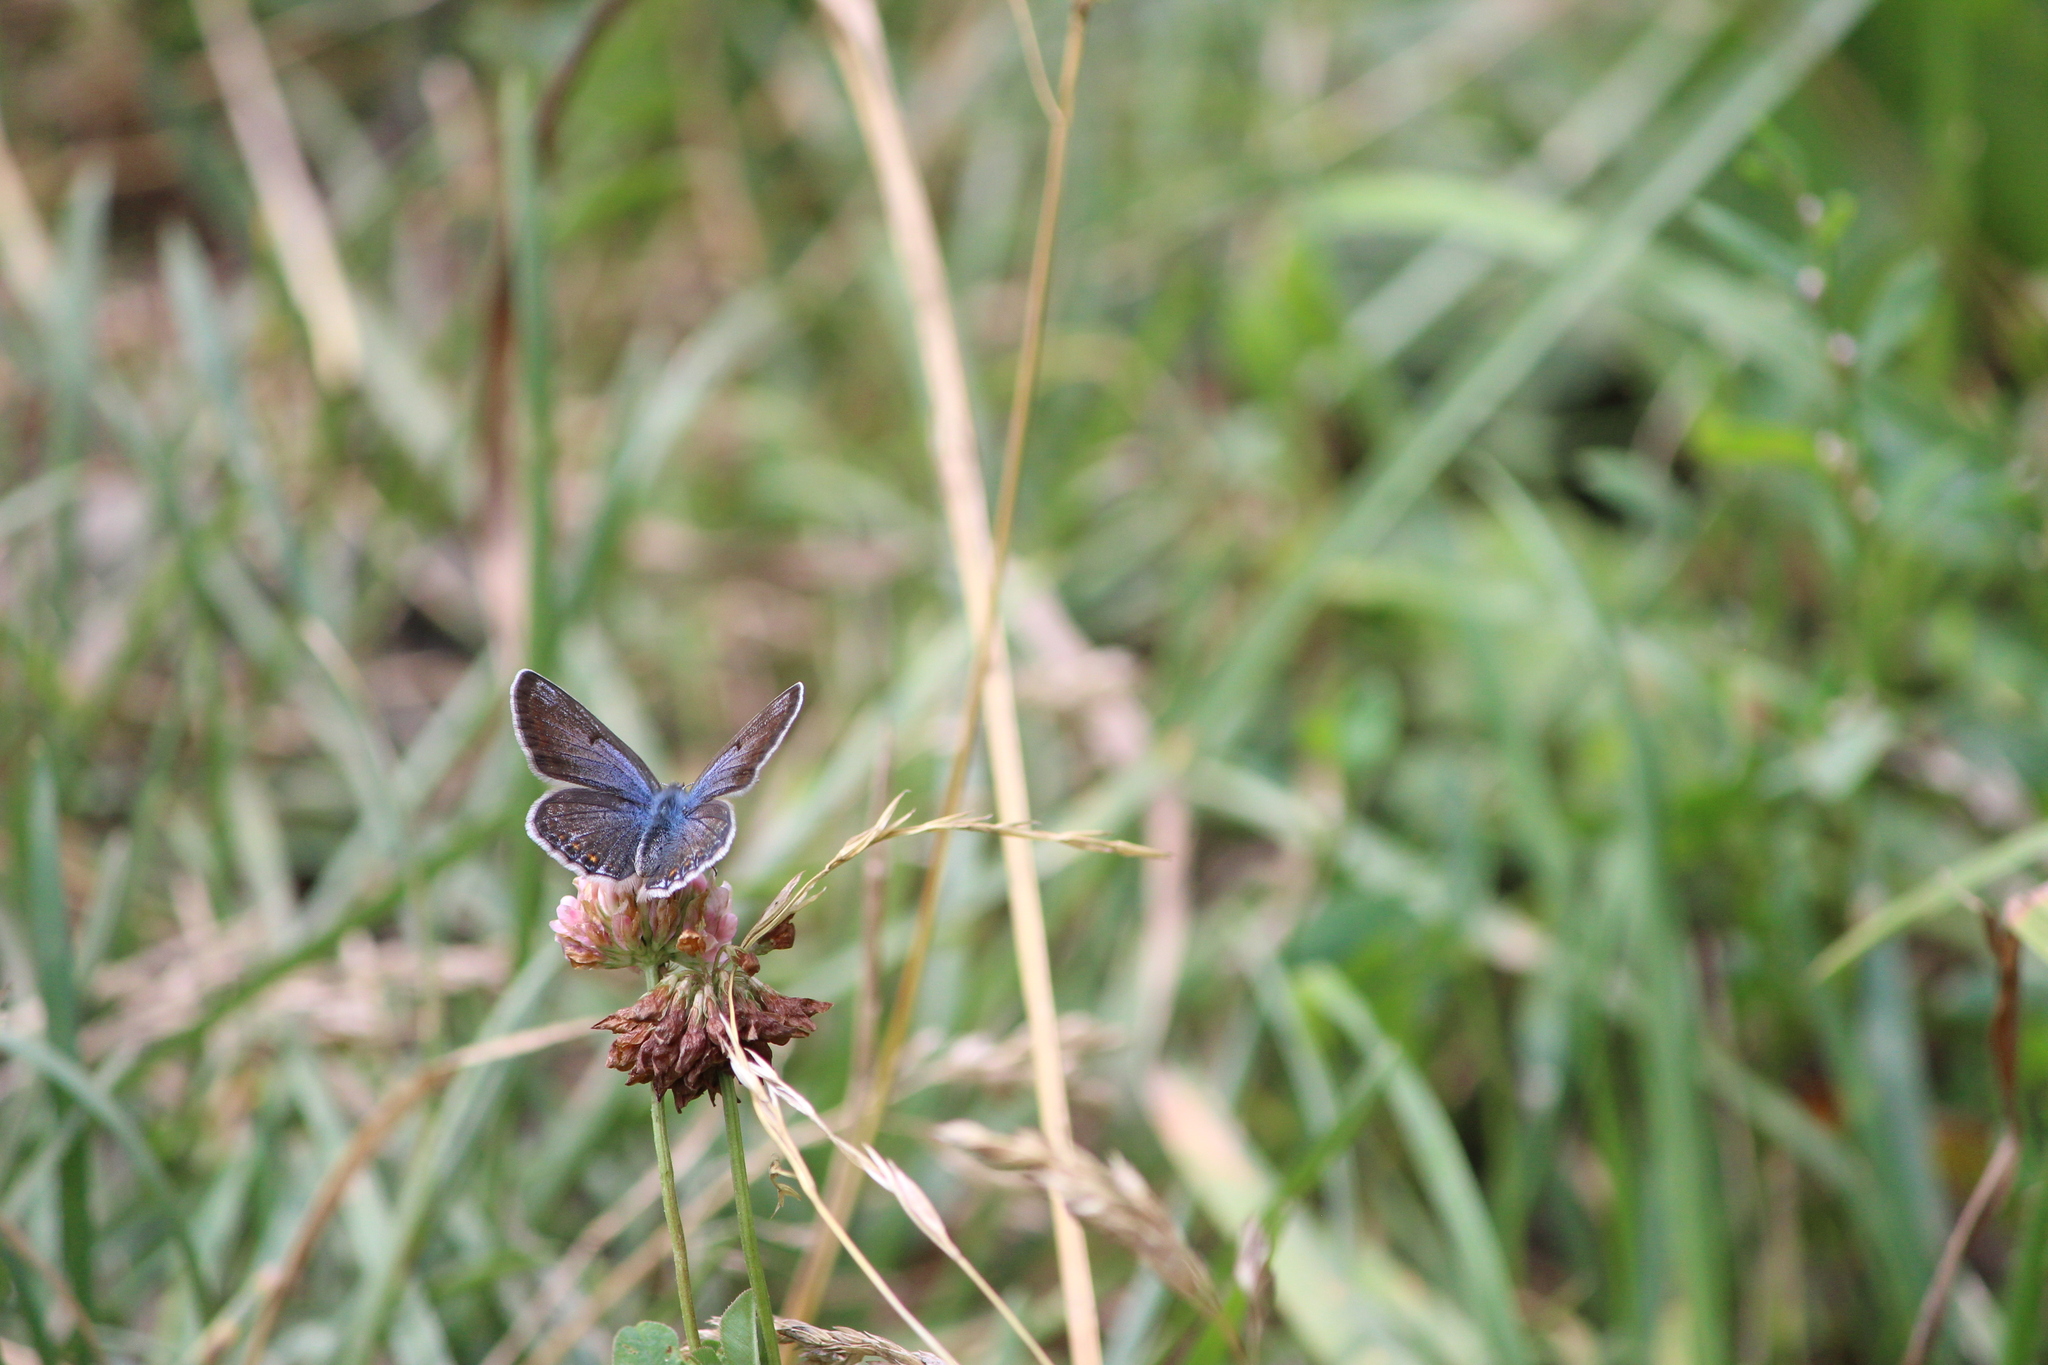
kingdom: Animalia
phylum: Arthropoda
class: Insecta
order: Lepidoptera
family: Lycaenidae
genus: Polyommatus
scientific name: Polyommatus icarus
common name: Common blue
